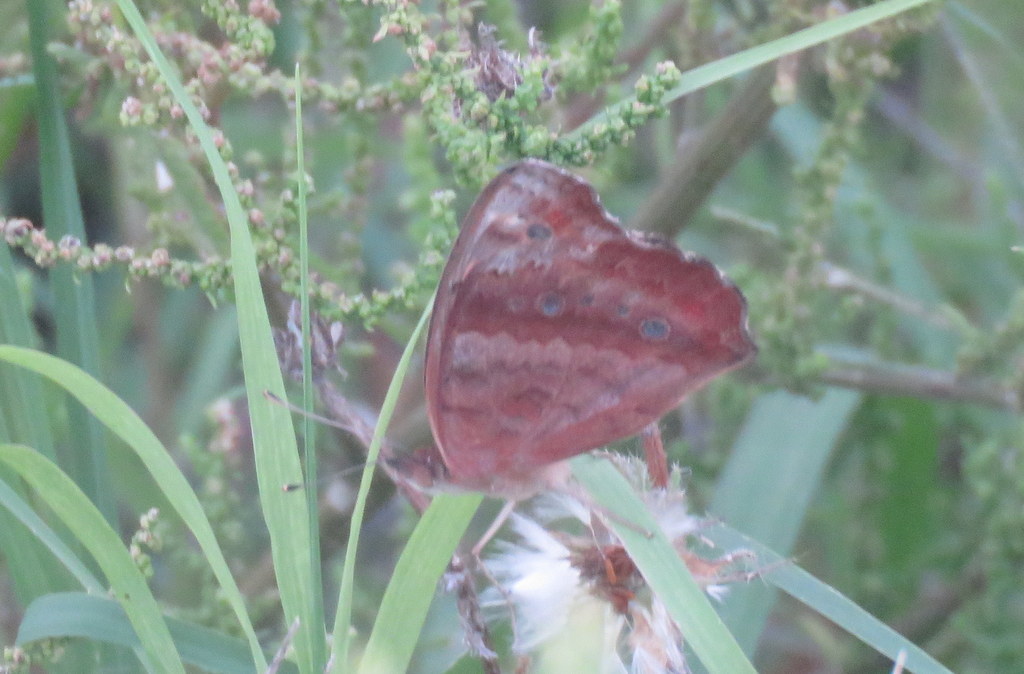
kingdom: Animalia
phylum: Arthropoda
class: Insecta
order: Lepidoptera
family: Nymphalidae
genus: Junonia
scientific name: Junonia lavinia
